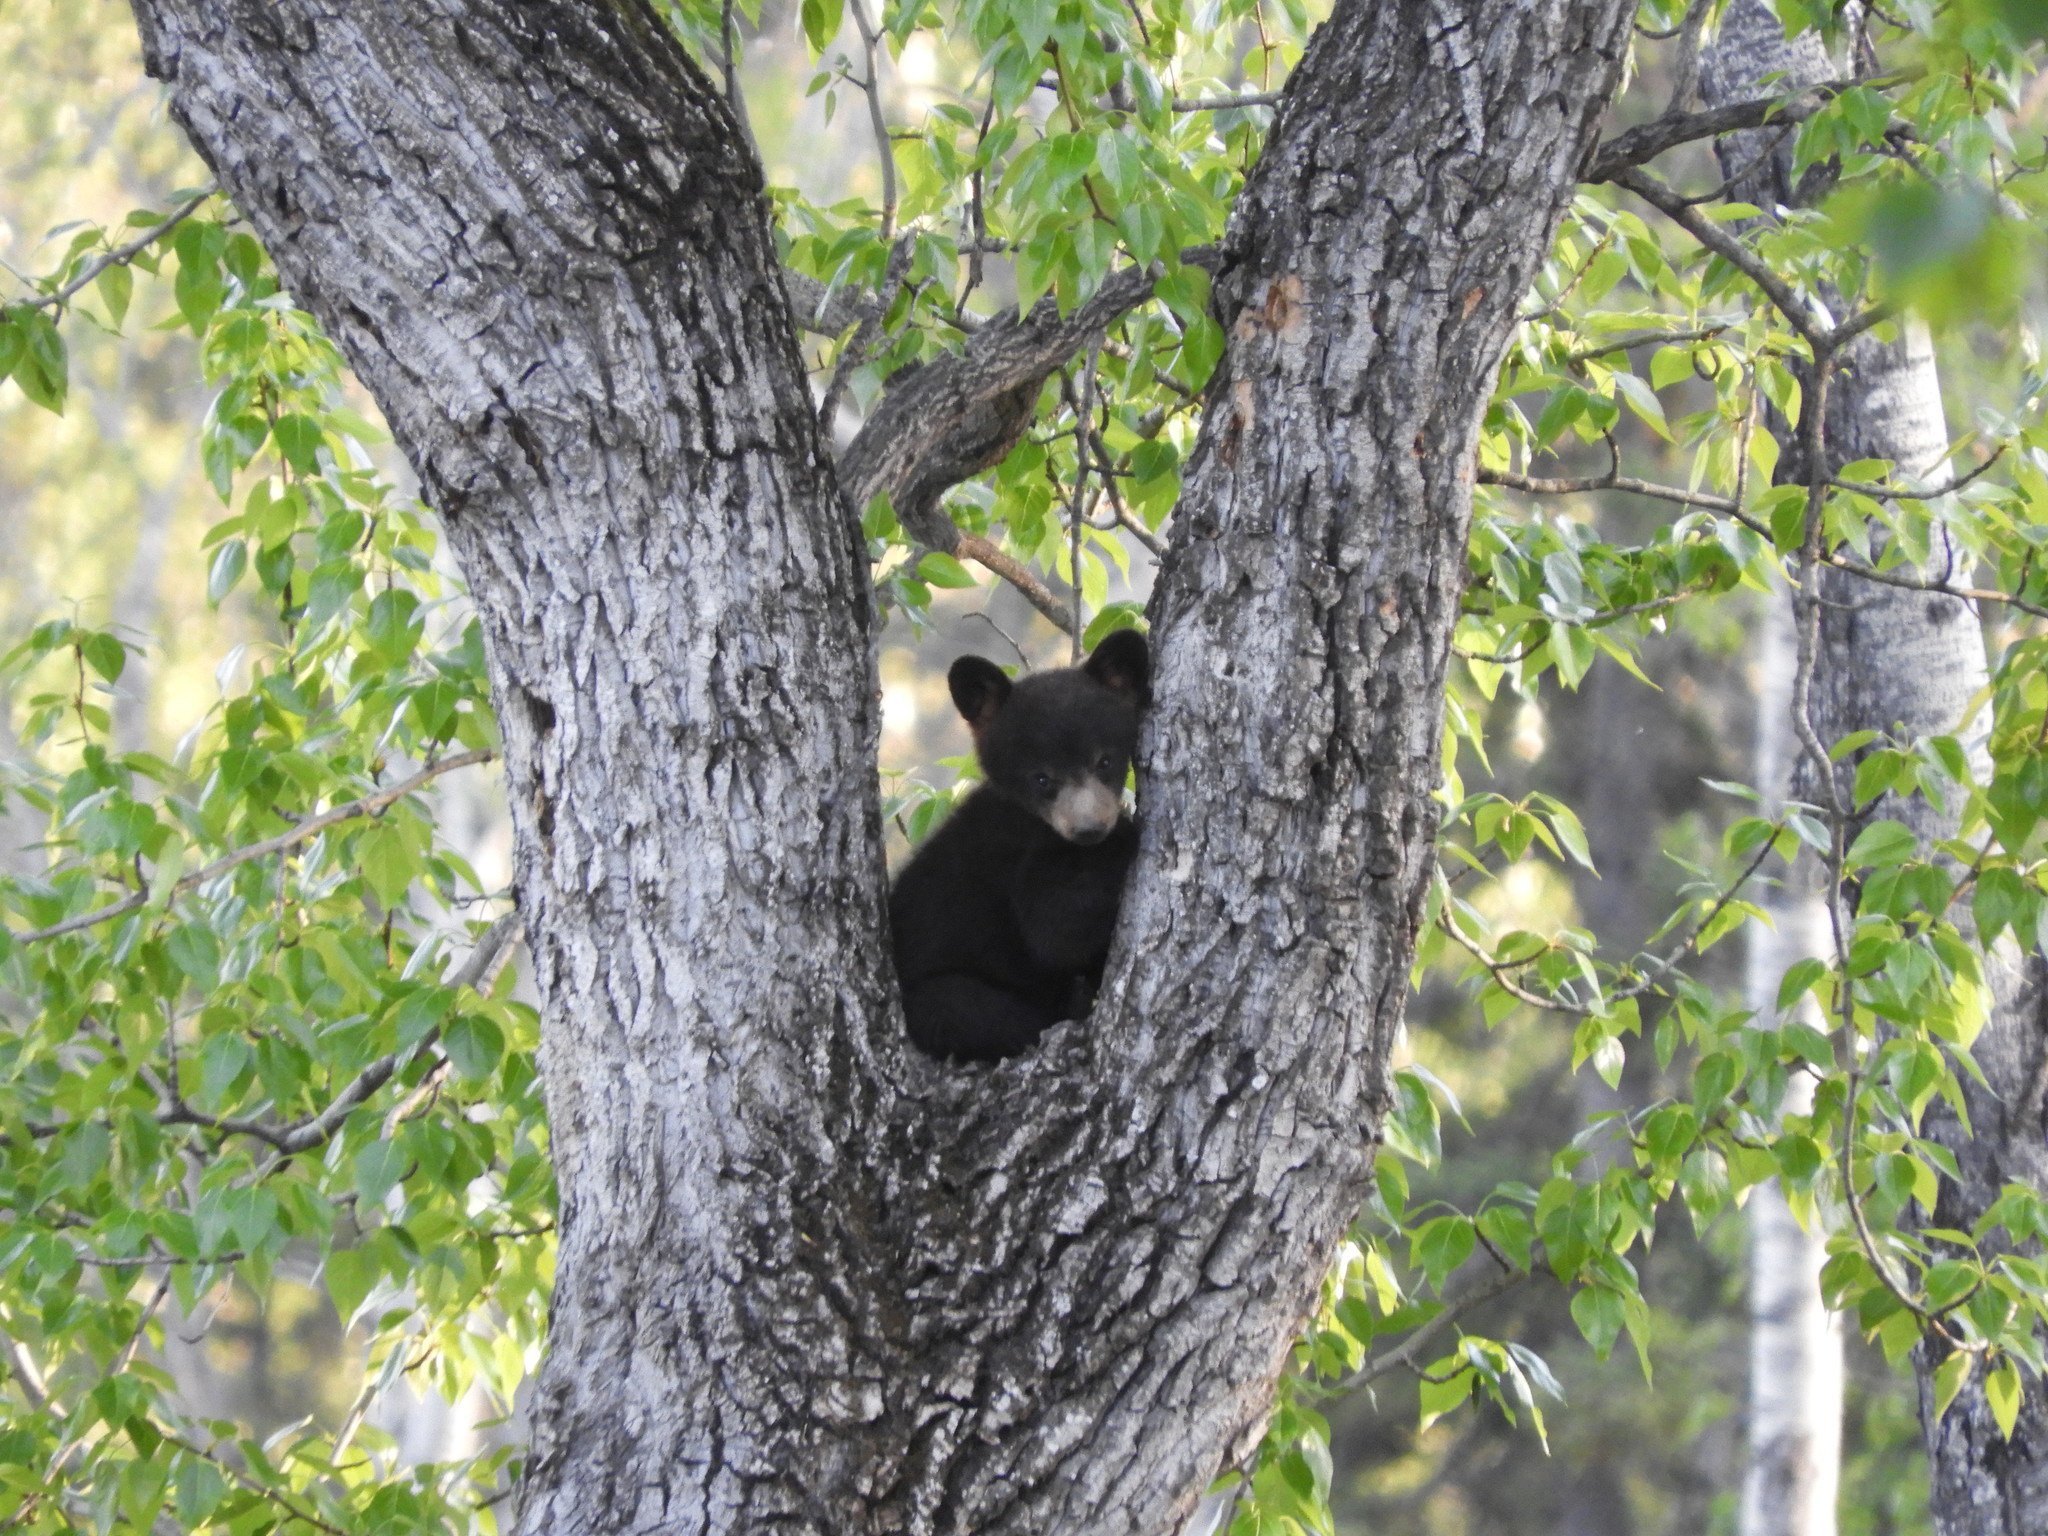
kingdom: Animalia
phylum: Chordata
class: Mammalia
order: Carnivora
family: Ursidae
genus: Ursus
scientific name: Ursus americanus
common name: American black bear
